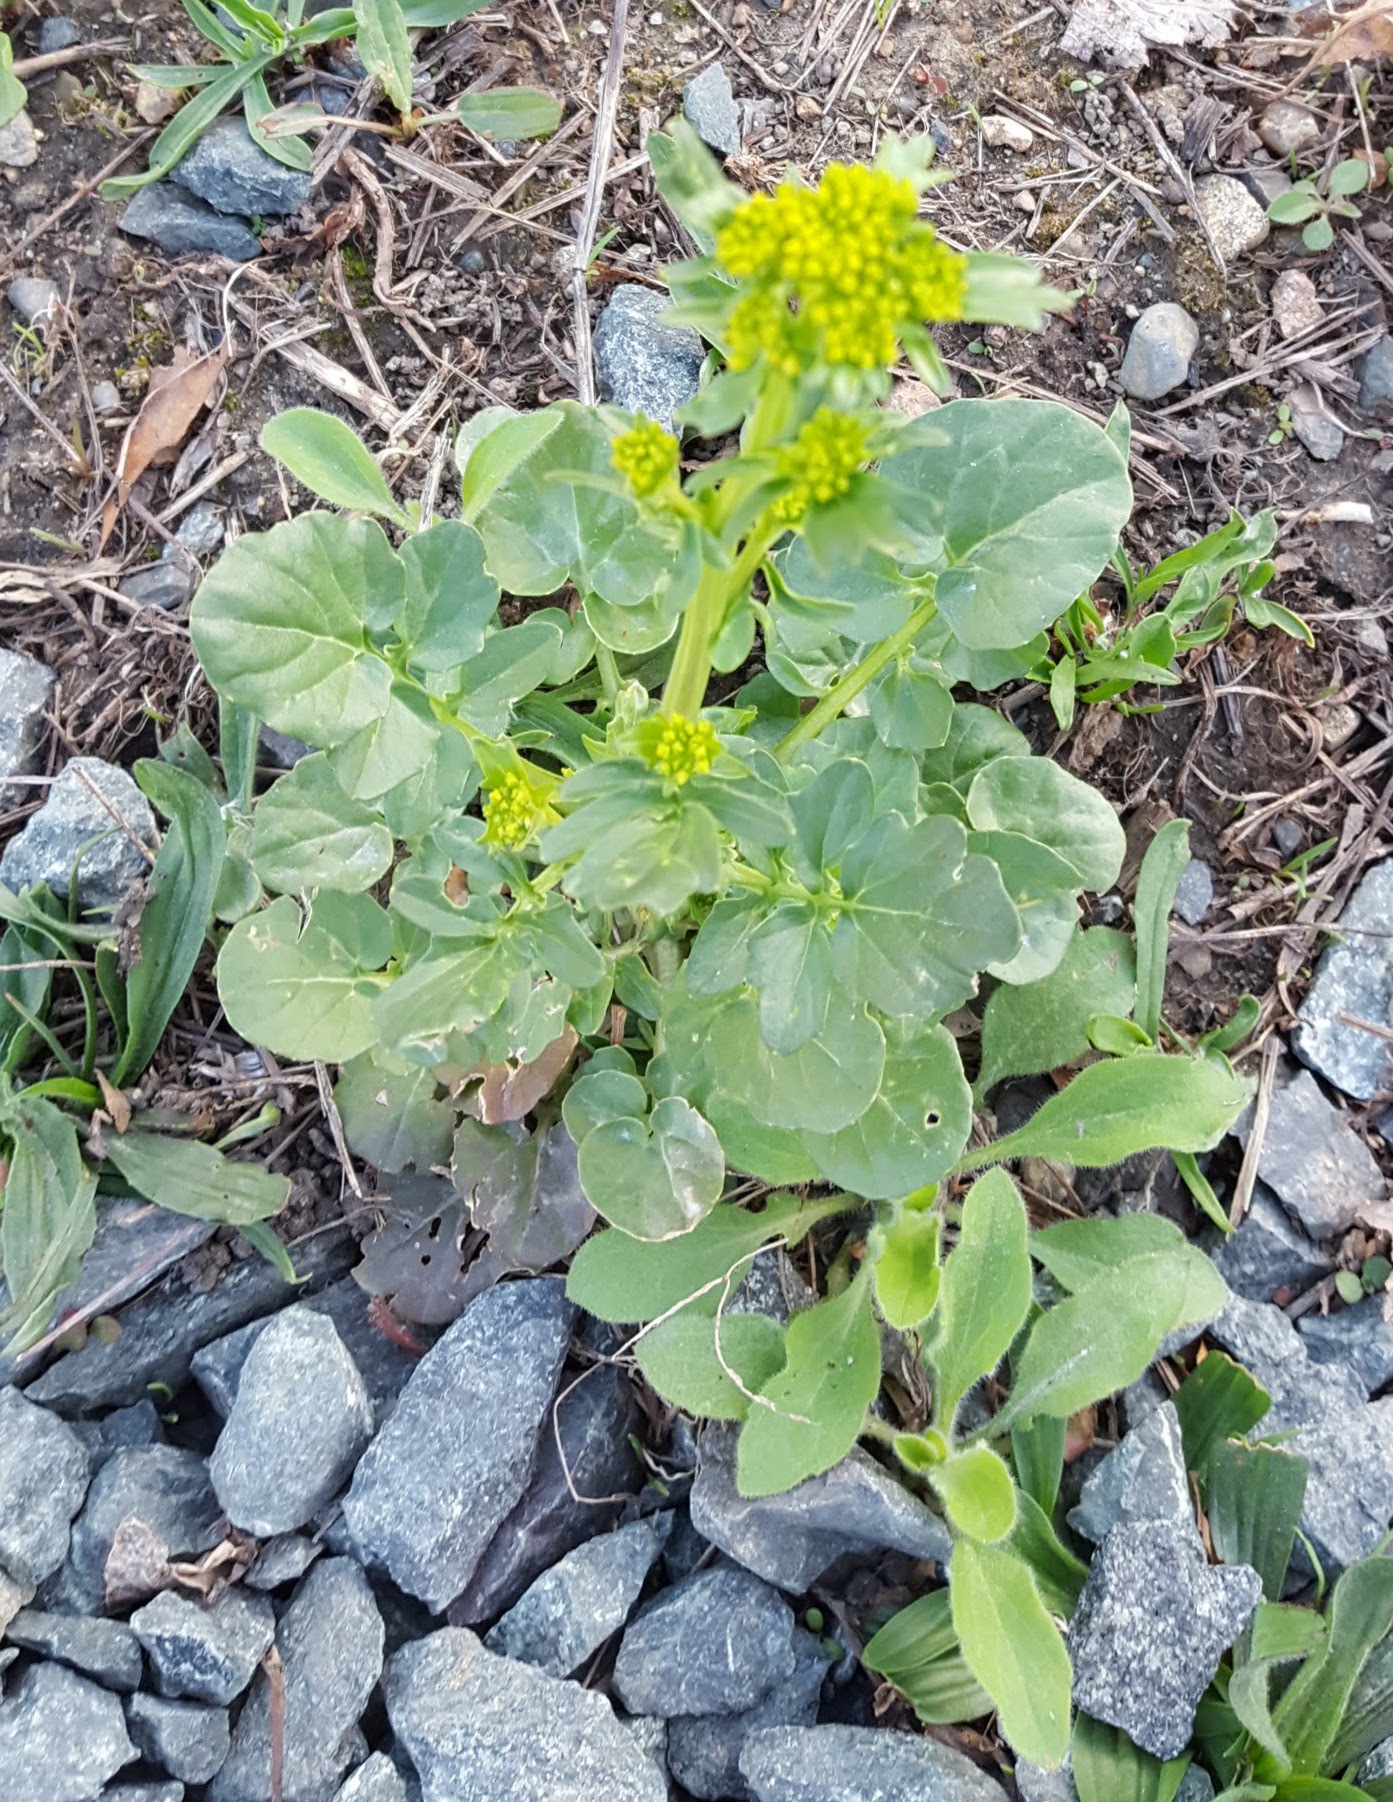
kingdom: Plantae
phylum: Tracheophyta
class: Magnoliopsida
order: Brassicales
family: Brassicaceae
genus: Barbarea
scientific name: Barbarea vulgaris
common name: Cressy-greens
